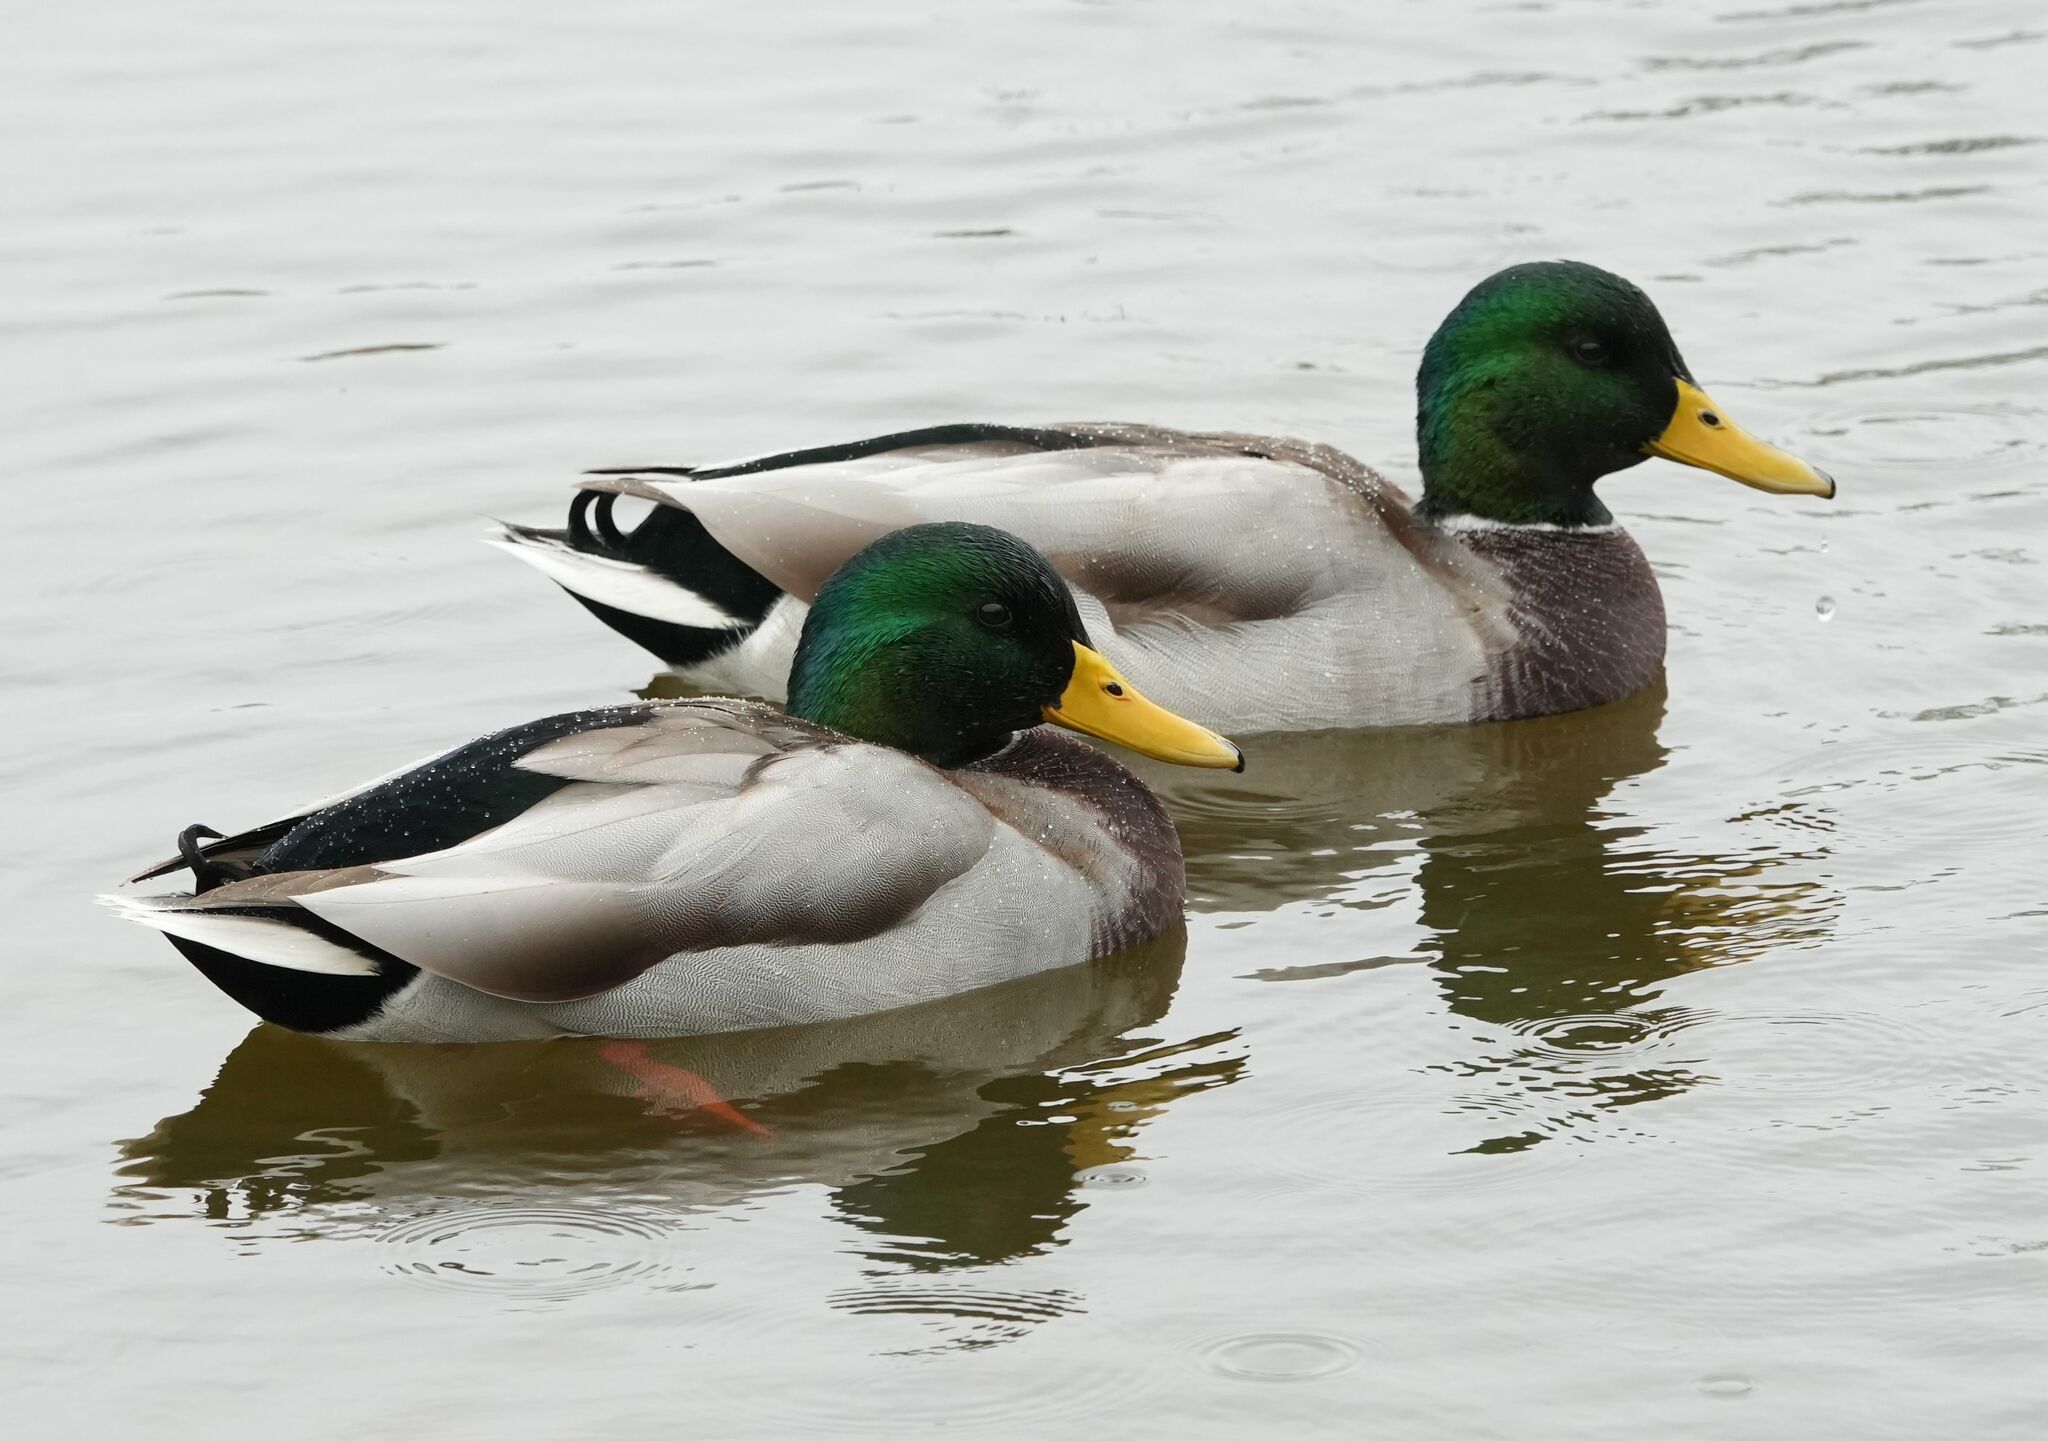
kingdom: Animalia
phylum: Chordata
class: Aves
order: Anseriformes
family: Anatidae
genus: Anas
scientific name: Anas platyrhynchos
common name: Mallard
